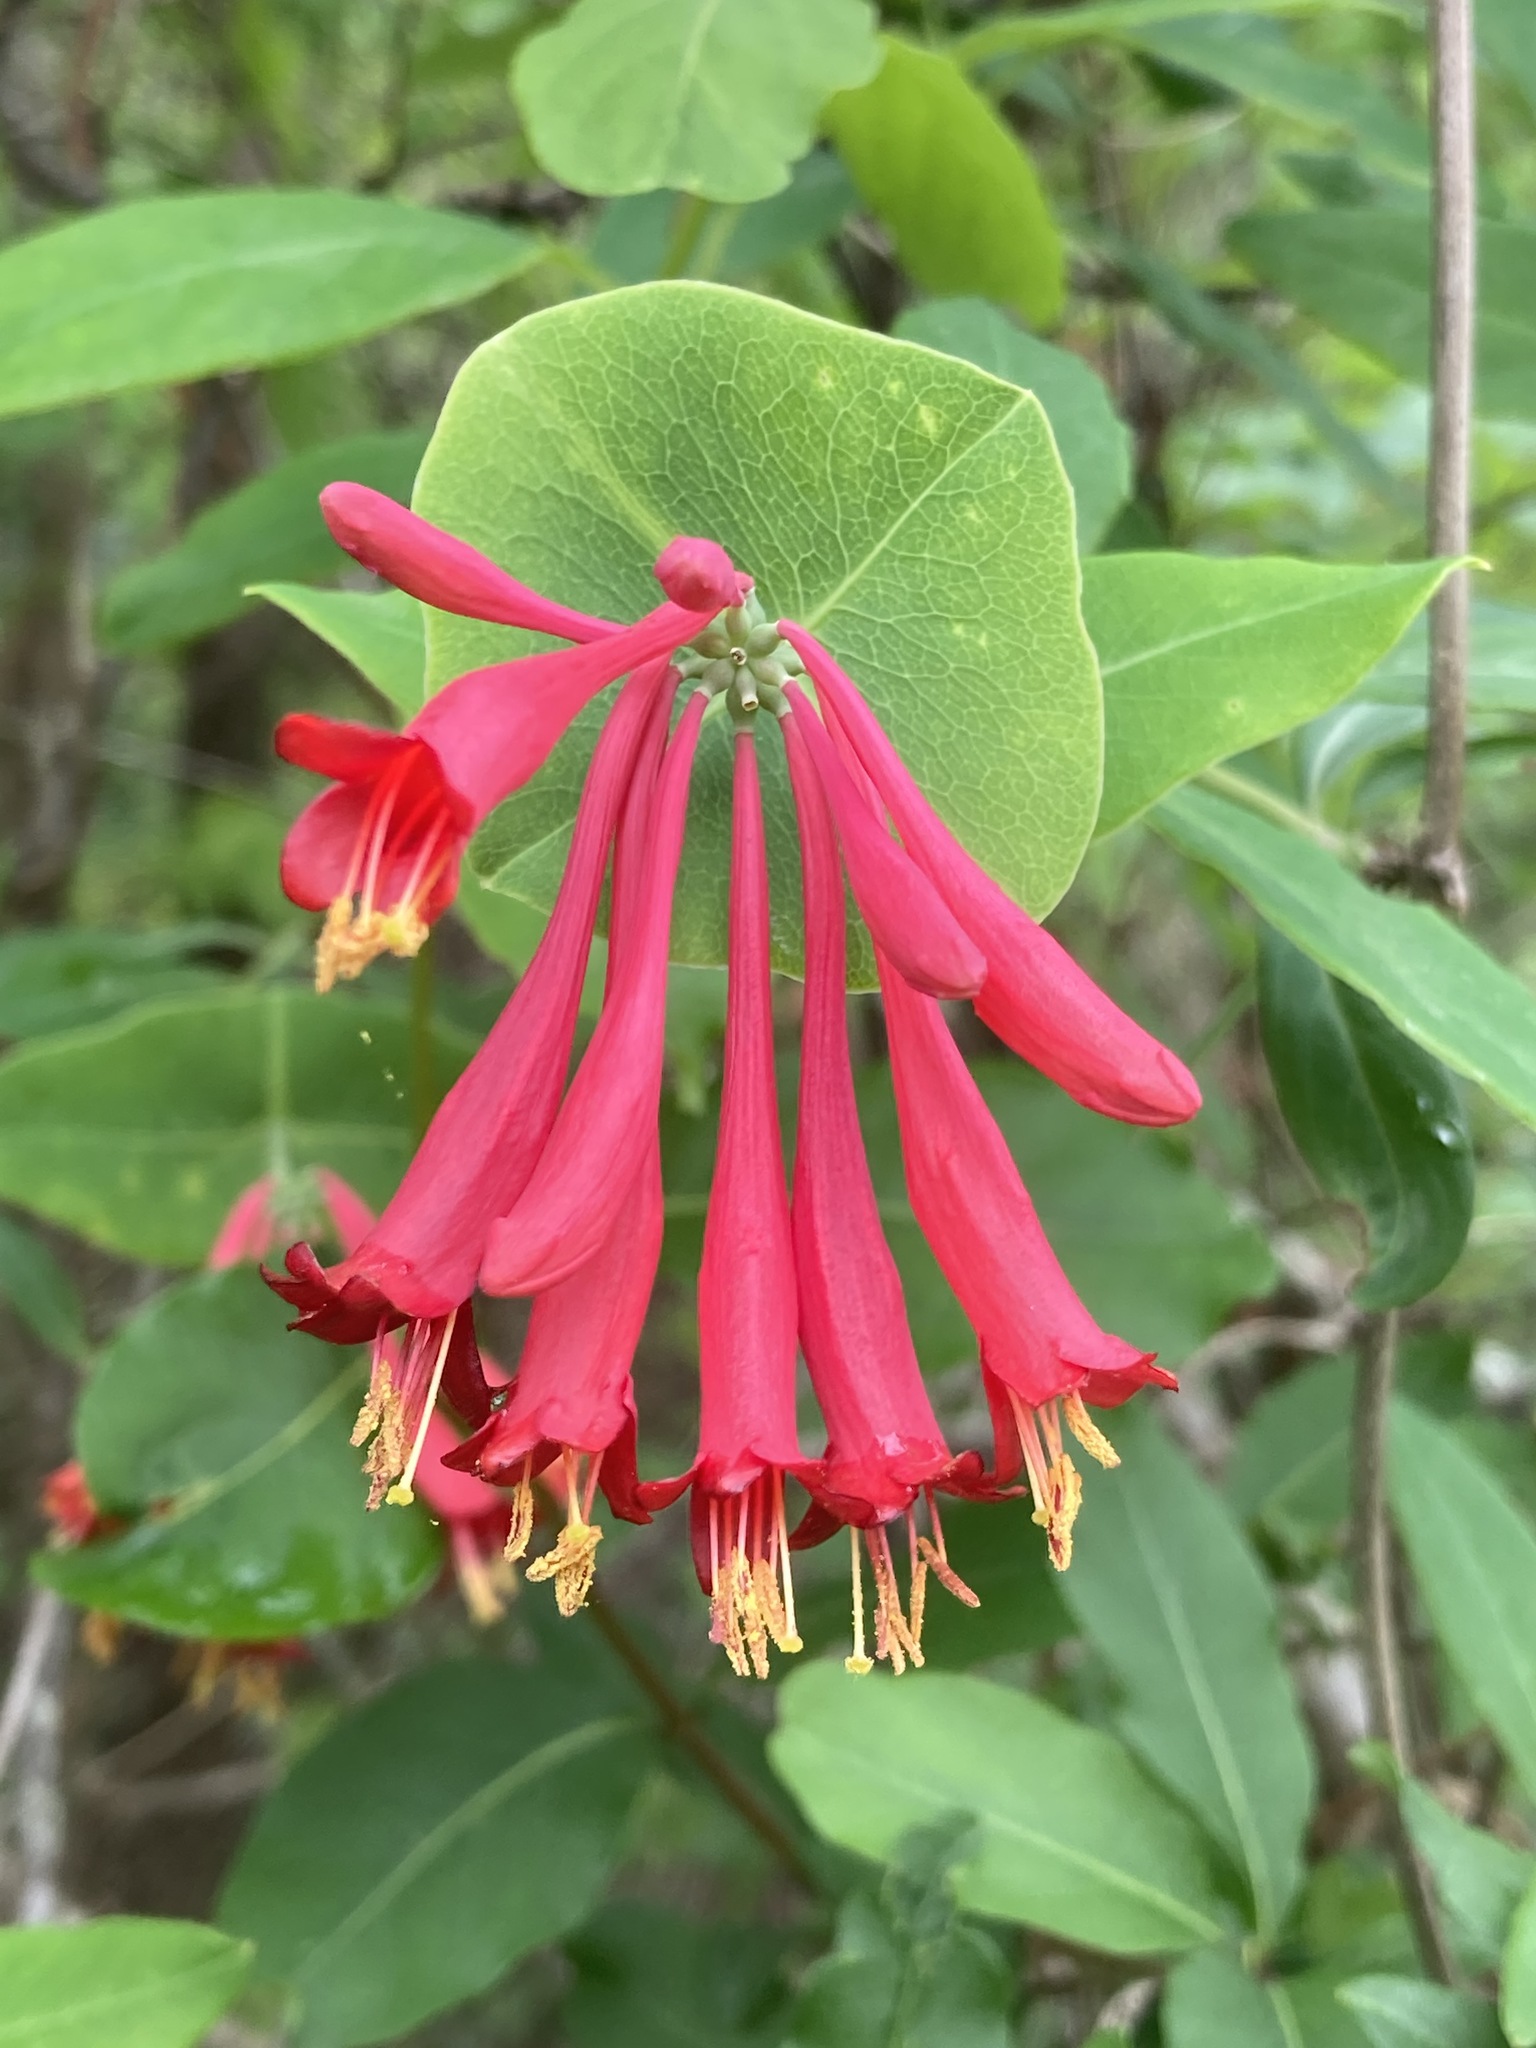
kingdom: Plantae
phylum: Tracheophyta
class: Magnoliopsida
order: Dipsacales
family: Caprifoliaceae
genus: Lonicera
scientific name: Lonicera sempervirens
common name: Coral honeysuckle
